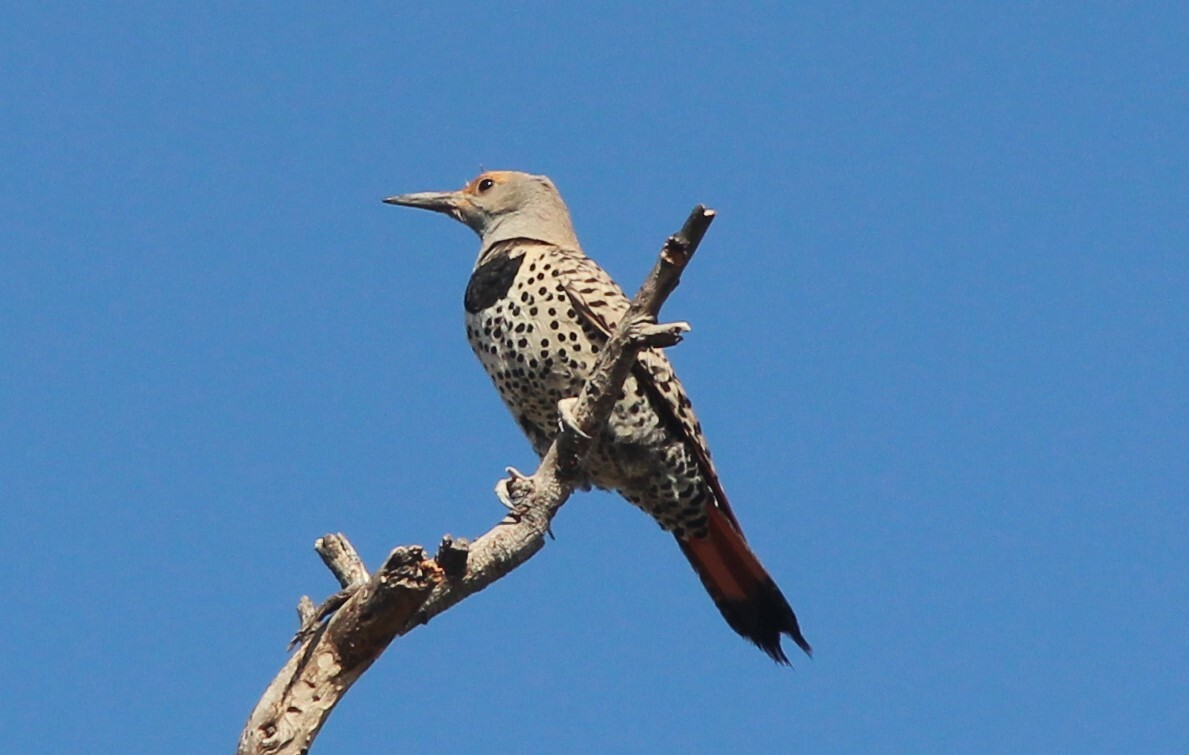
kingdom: Animalia
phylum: Chordata
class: Aves
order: Piciformes
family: Picidae
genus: Colaptes
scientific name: Colaptes auratus
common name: Northern flicker
